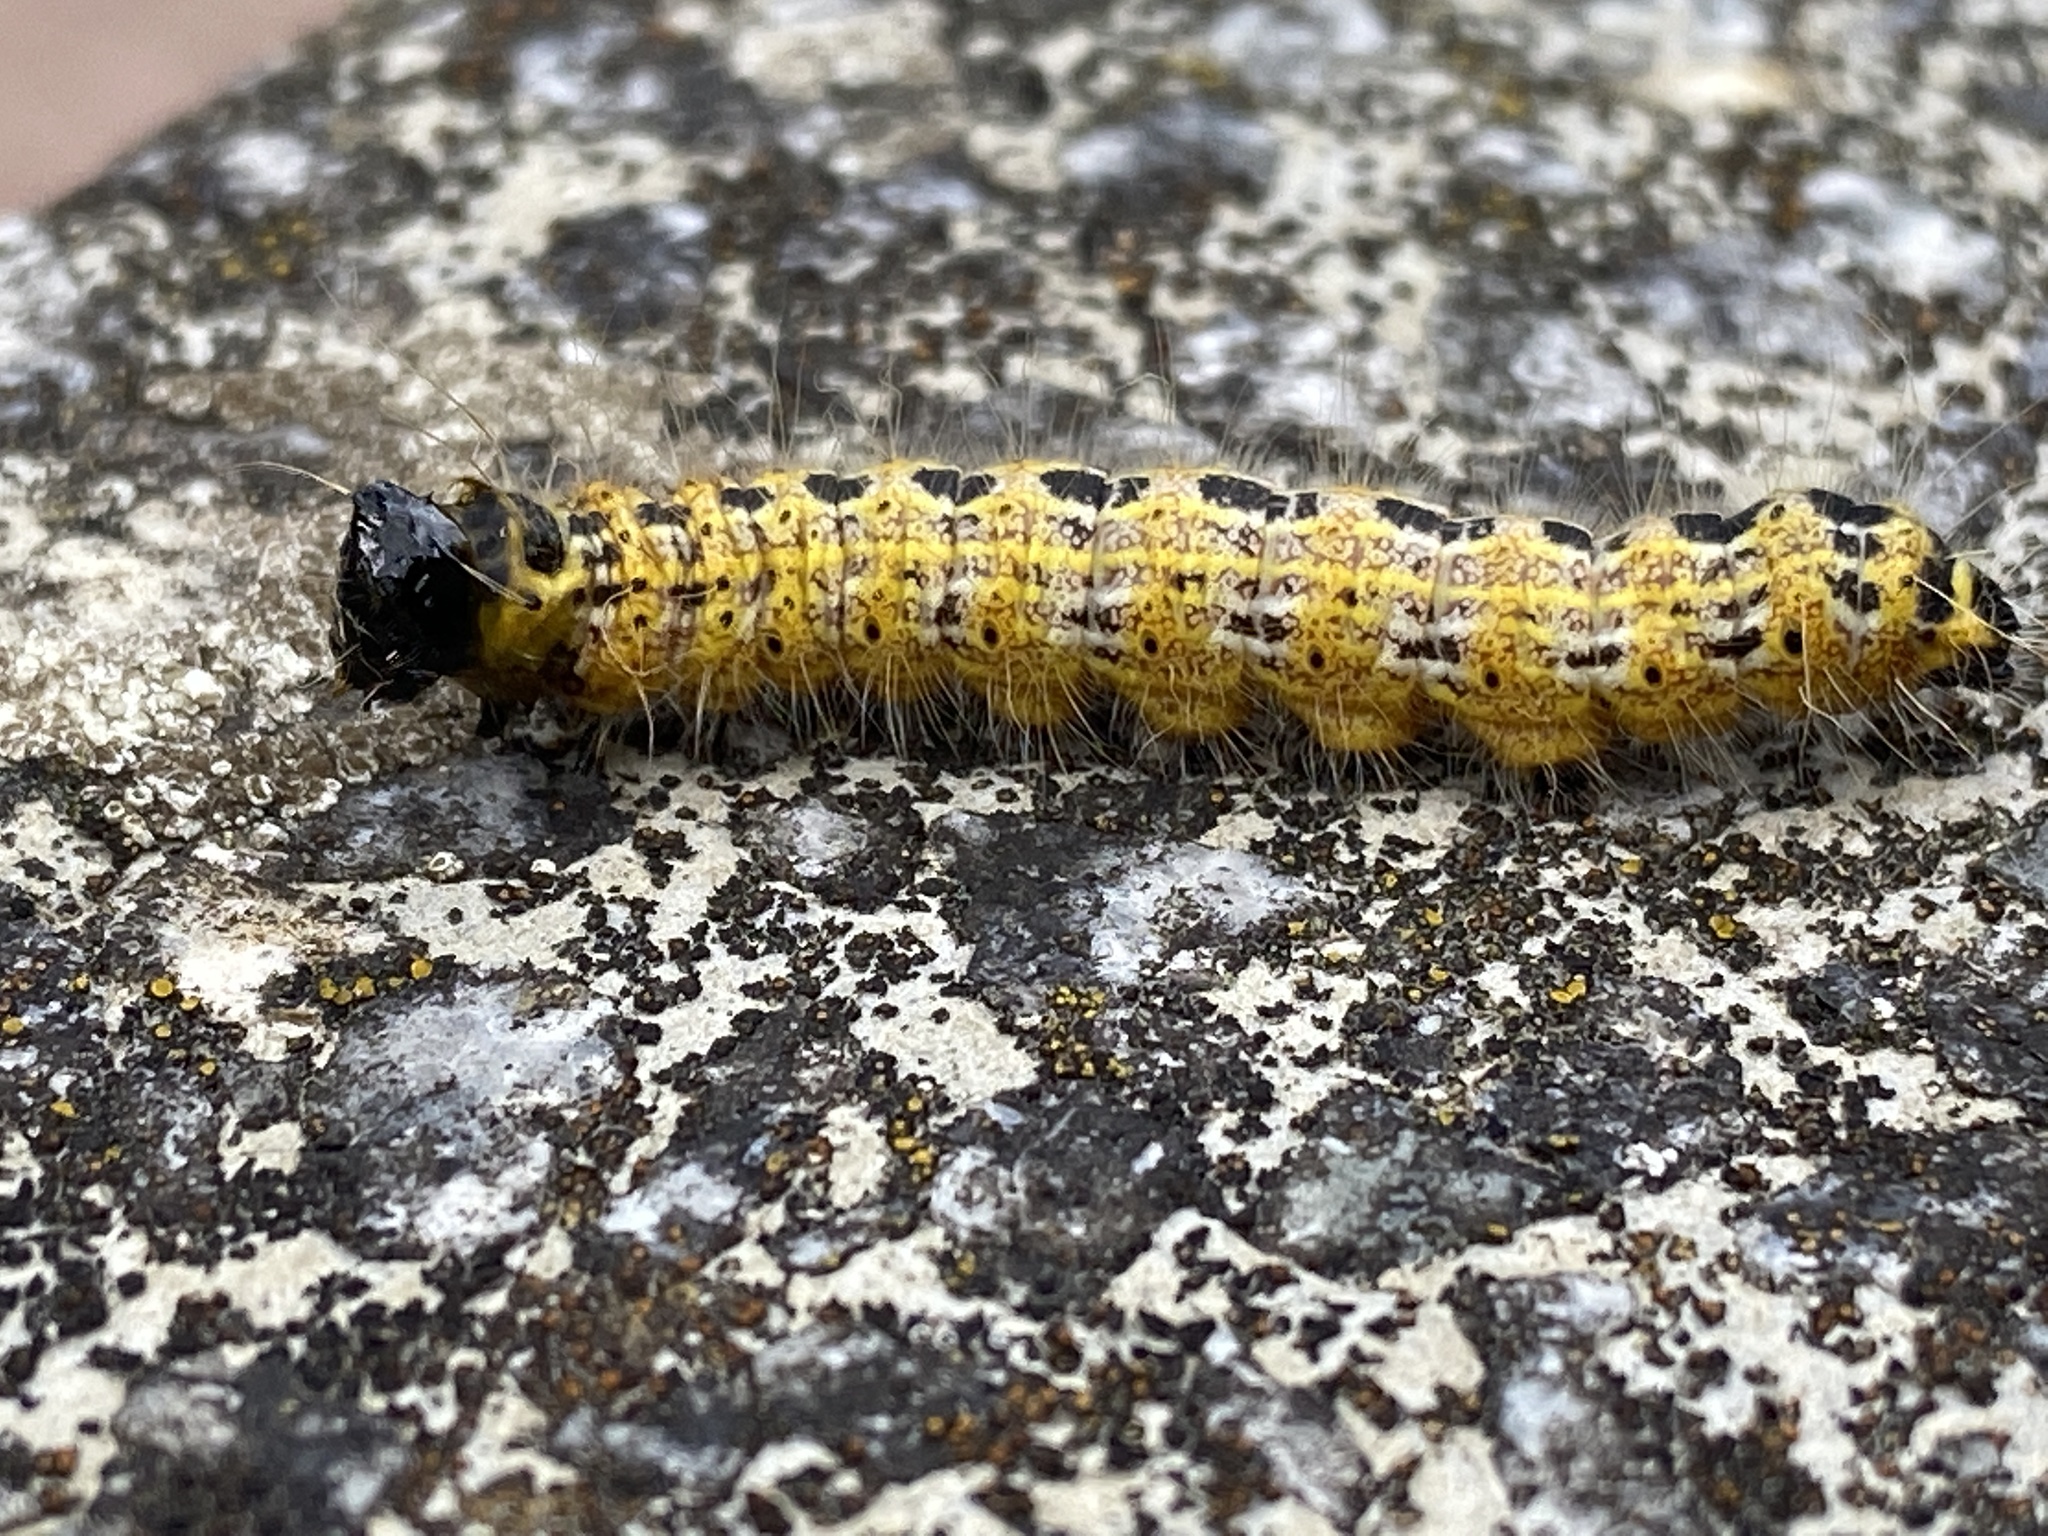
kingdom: Animalia
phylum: Arthropoda
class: Insecta
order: Lepidoptera
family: Notodontidae
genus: Phalera
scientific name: Phalera bucephala
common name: Buff-tip
